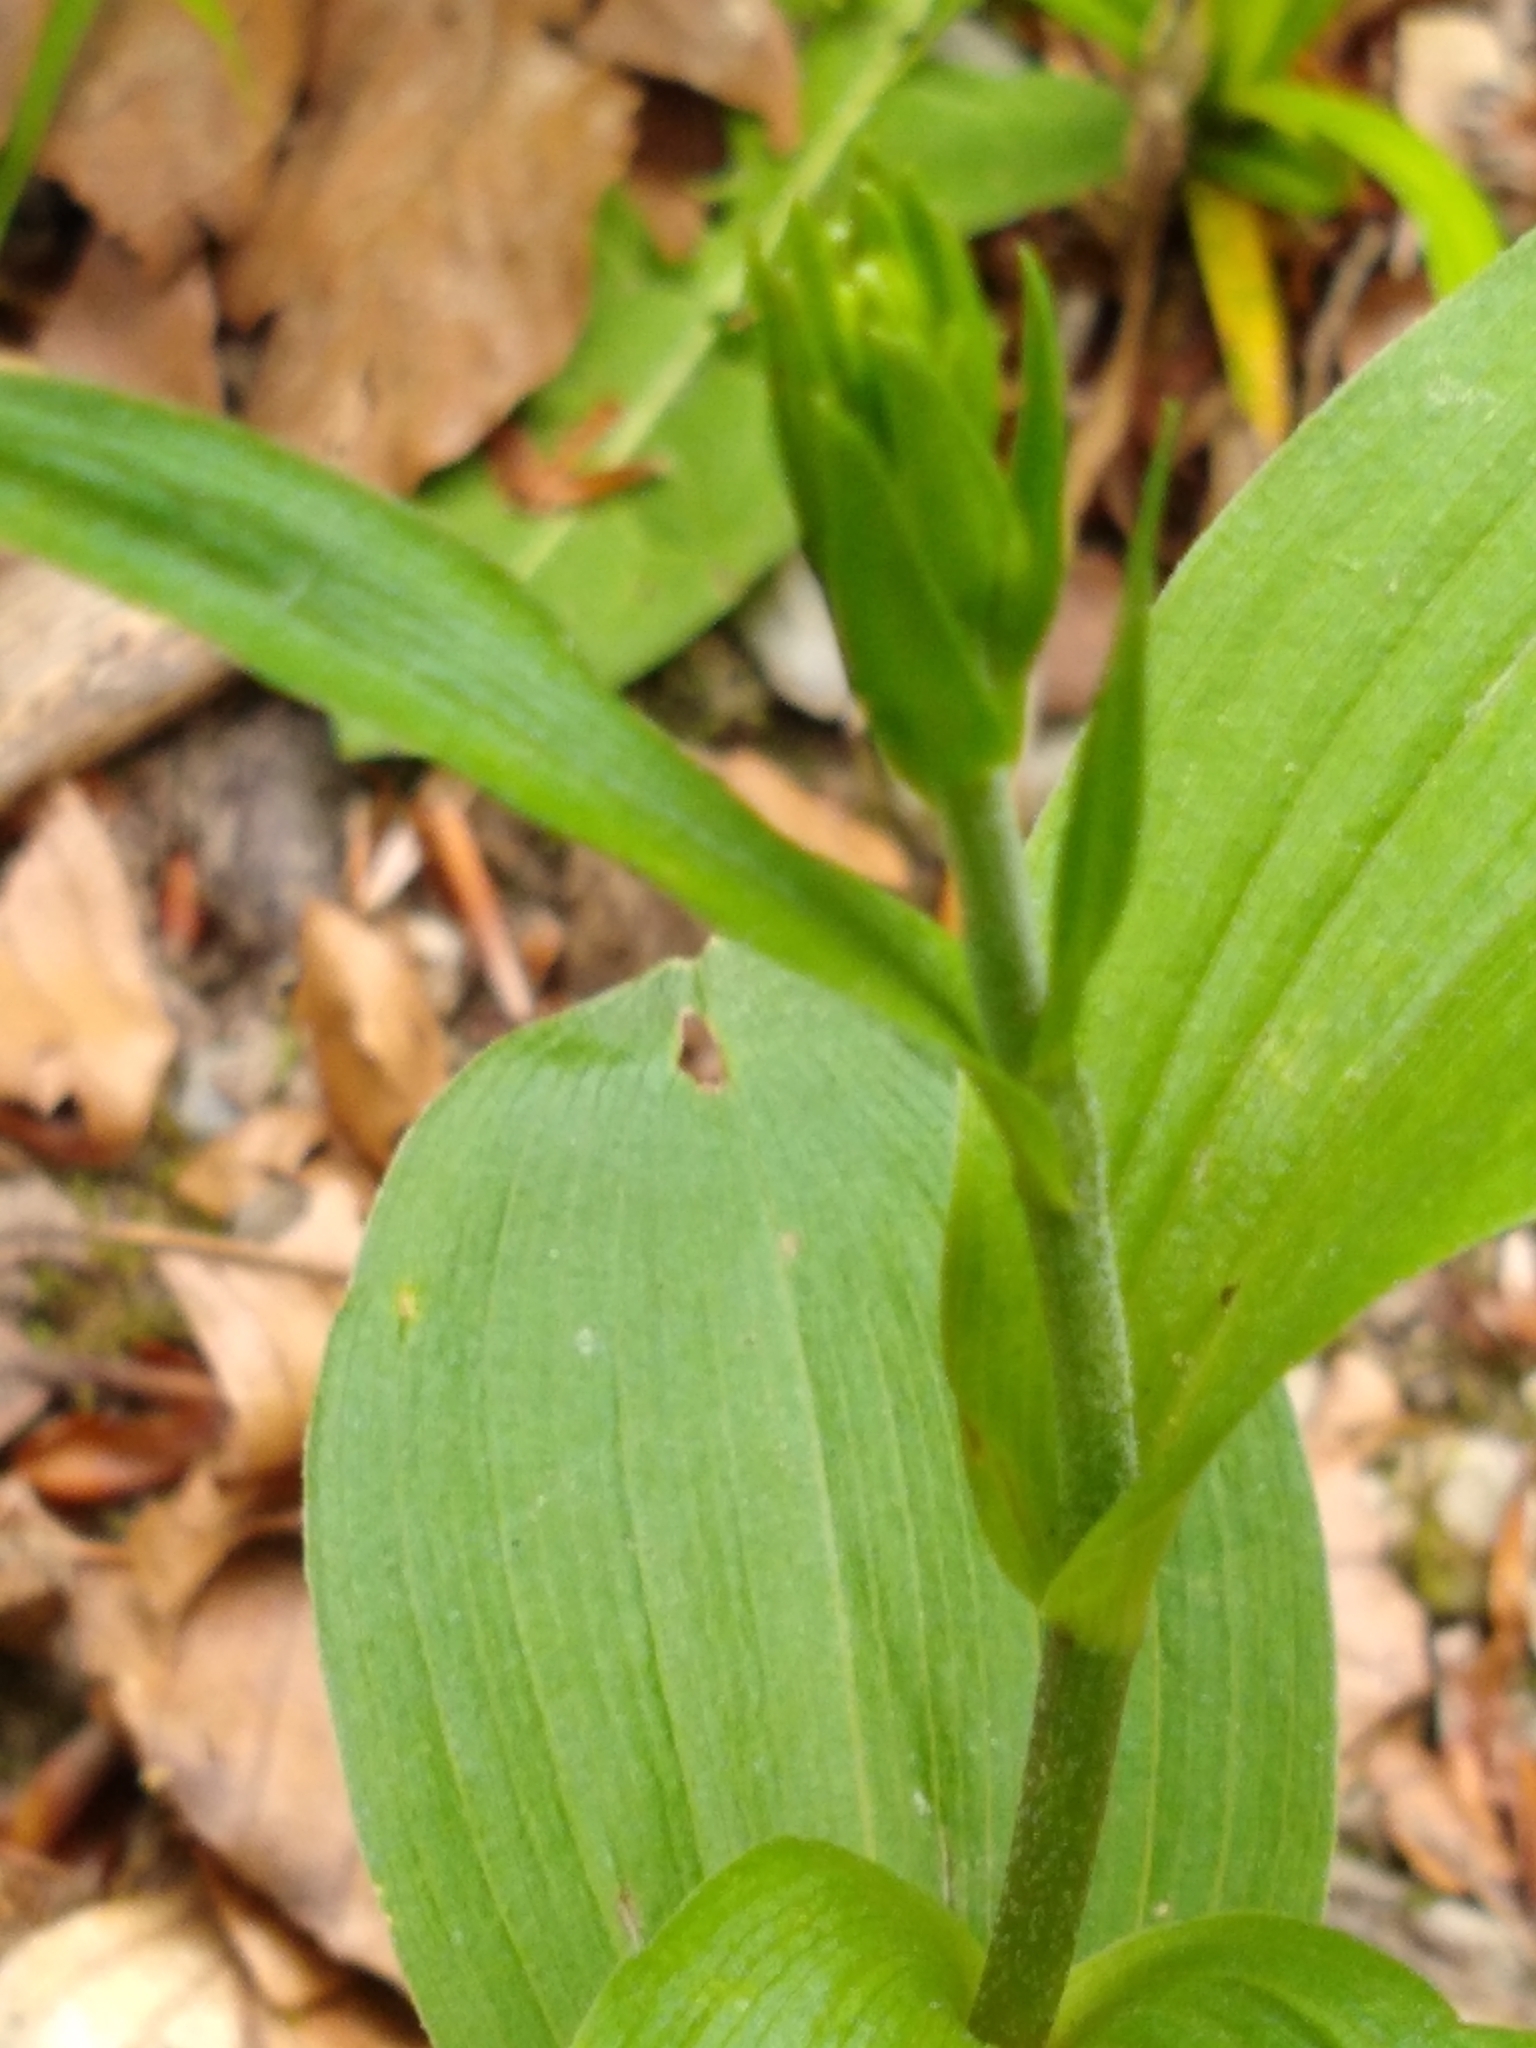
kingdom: Plantae
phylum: Tracheophyta
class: Liliopsida
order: Asparagales
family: Orchidaceae
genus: Epipactis
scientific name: Epipactis helleborine
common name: Broad-leaved helleborine
